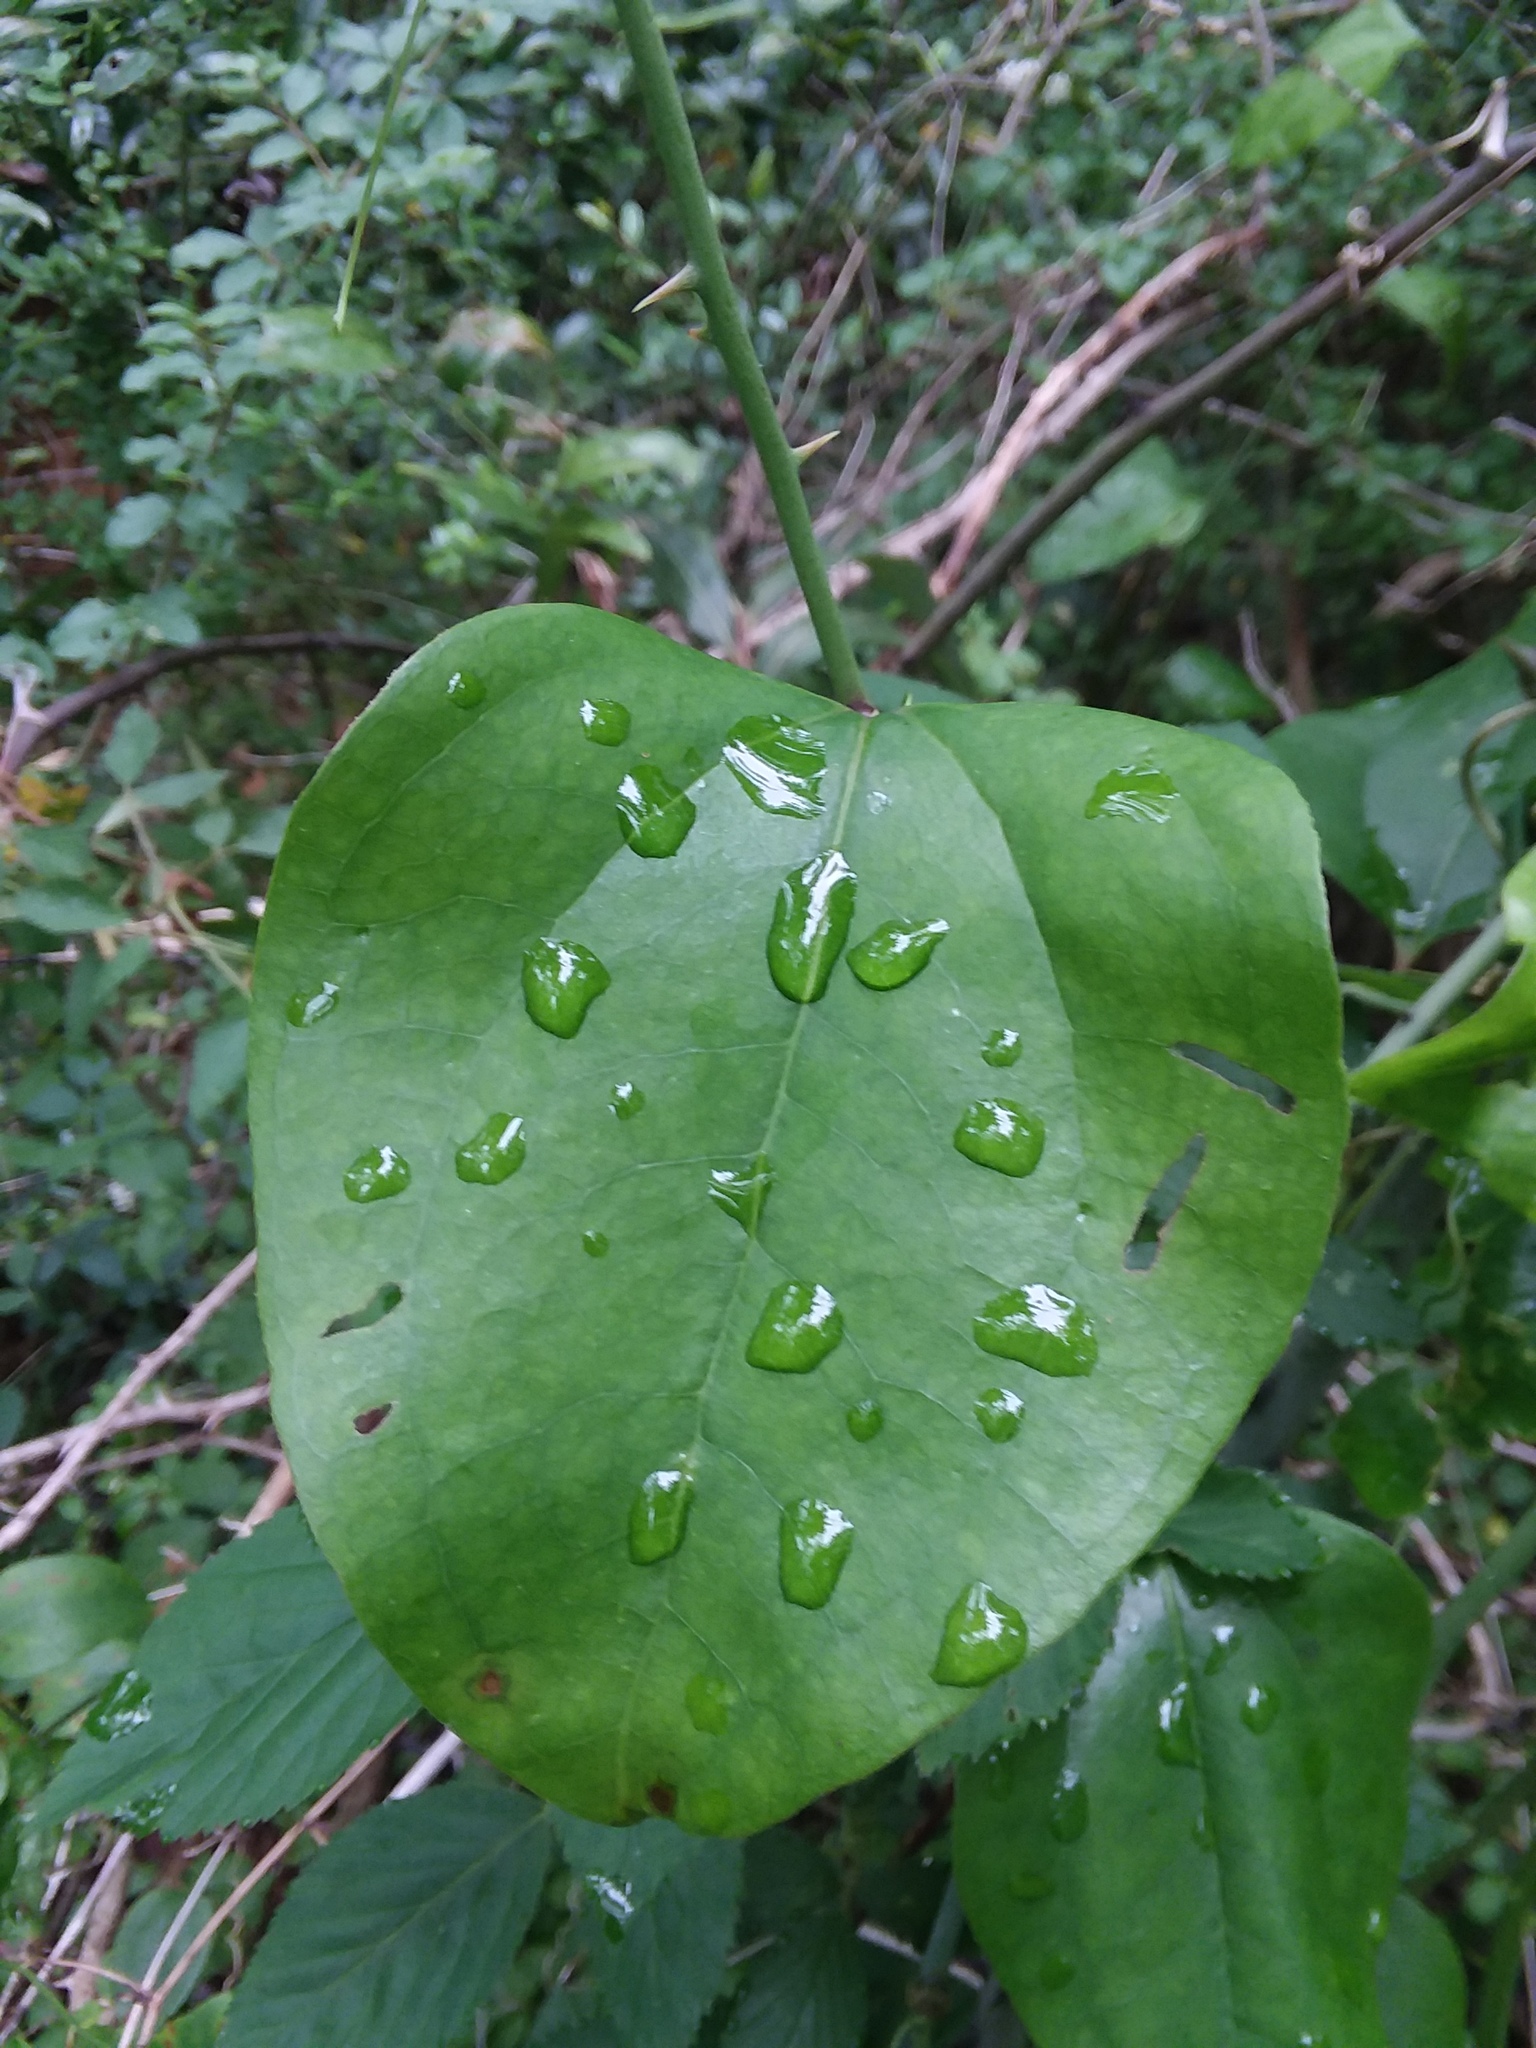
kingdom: Plantae
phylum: Tracheophyta
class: Liliopsida
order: Liliales
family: Smilacaceae
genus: Smilax
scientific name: Smilax rotundifolia
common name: Bullbriar
